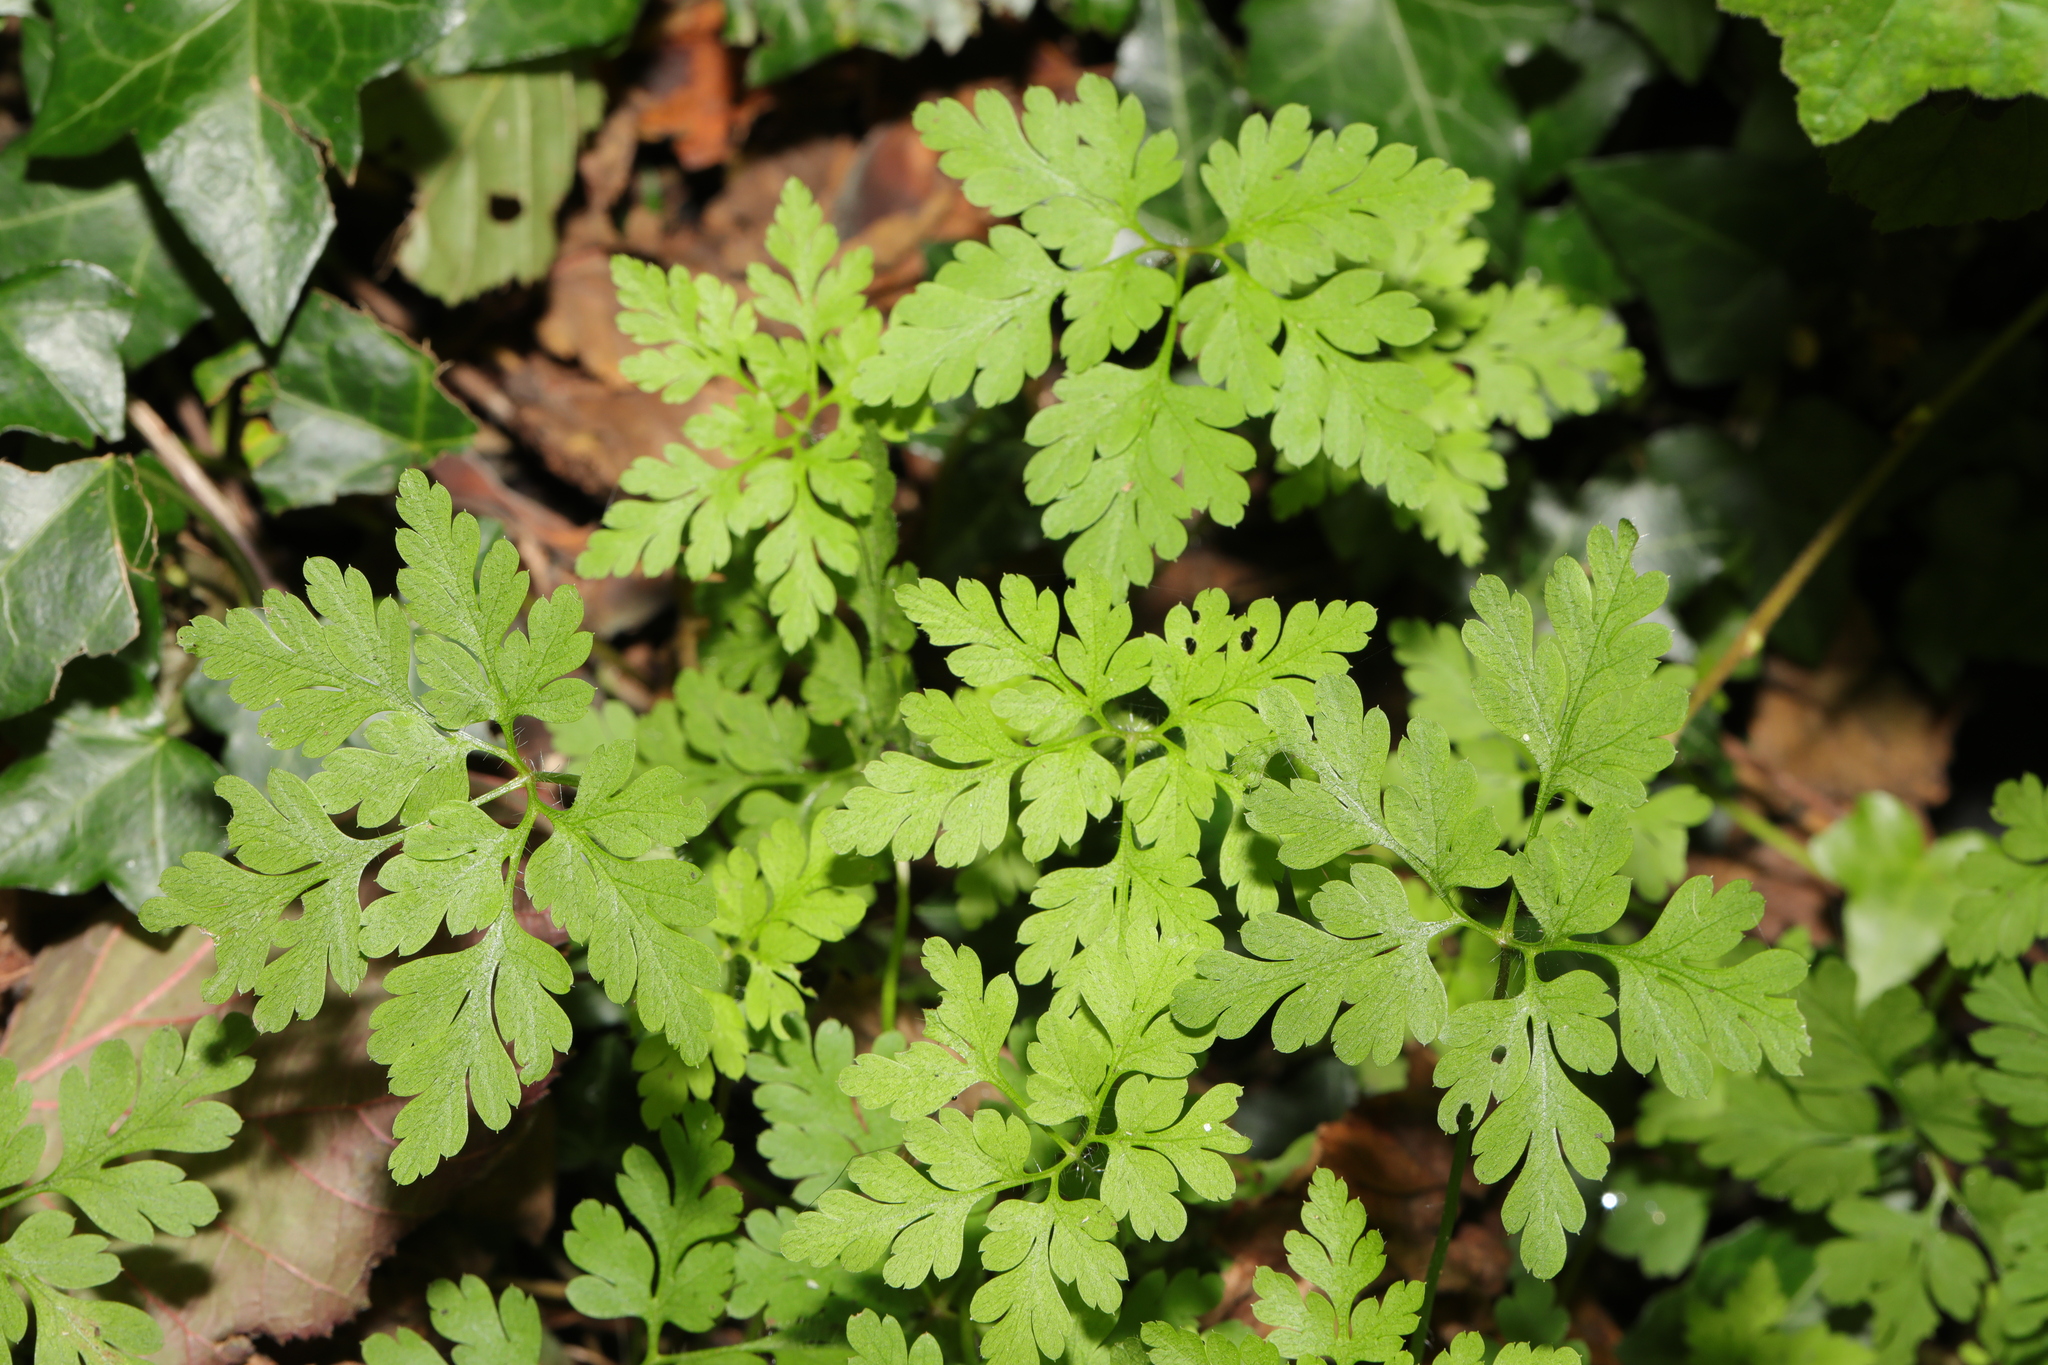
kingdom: Plantae
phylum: Tracheophyta
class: Magnoliopsida
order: Geraniales
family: Geraniaceae
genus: Geranium
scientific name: Geranium robertianum
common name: Herb-robert
